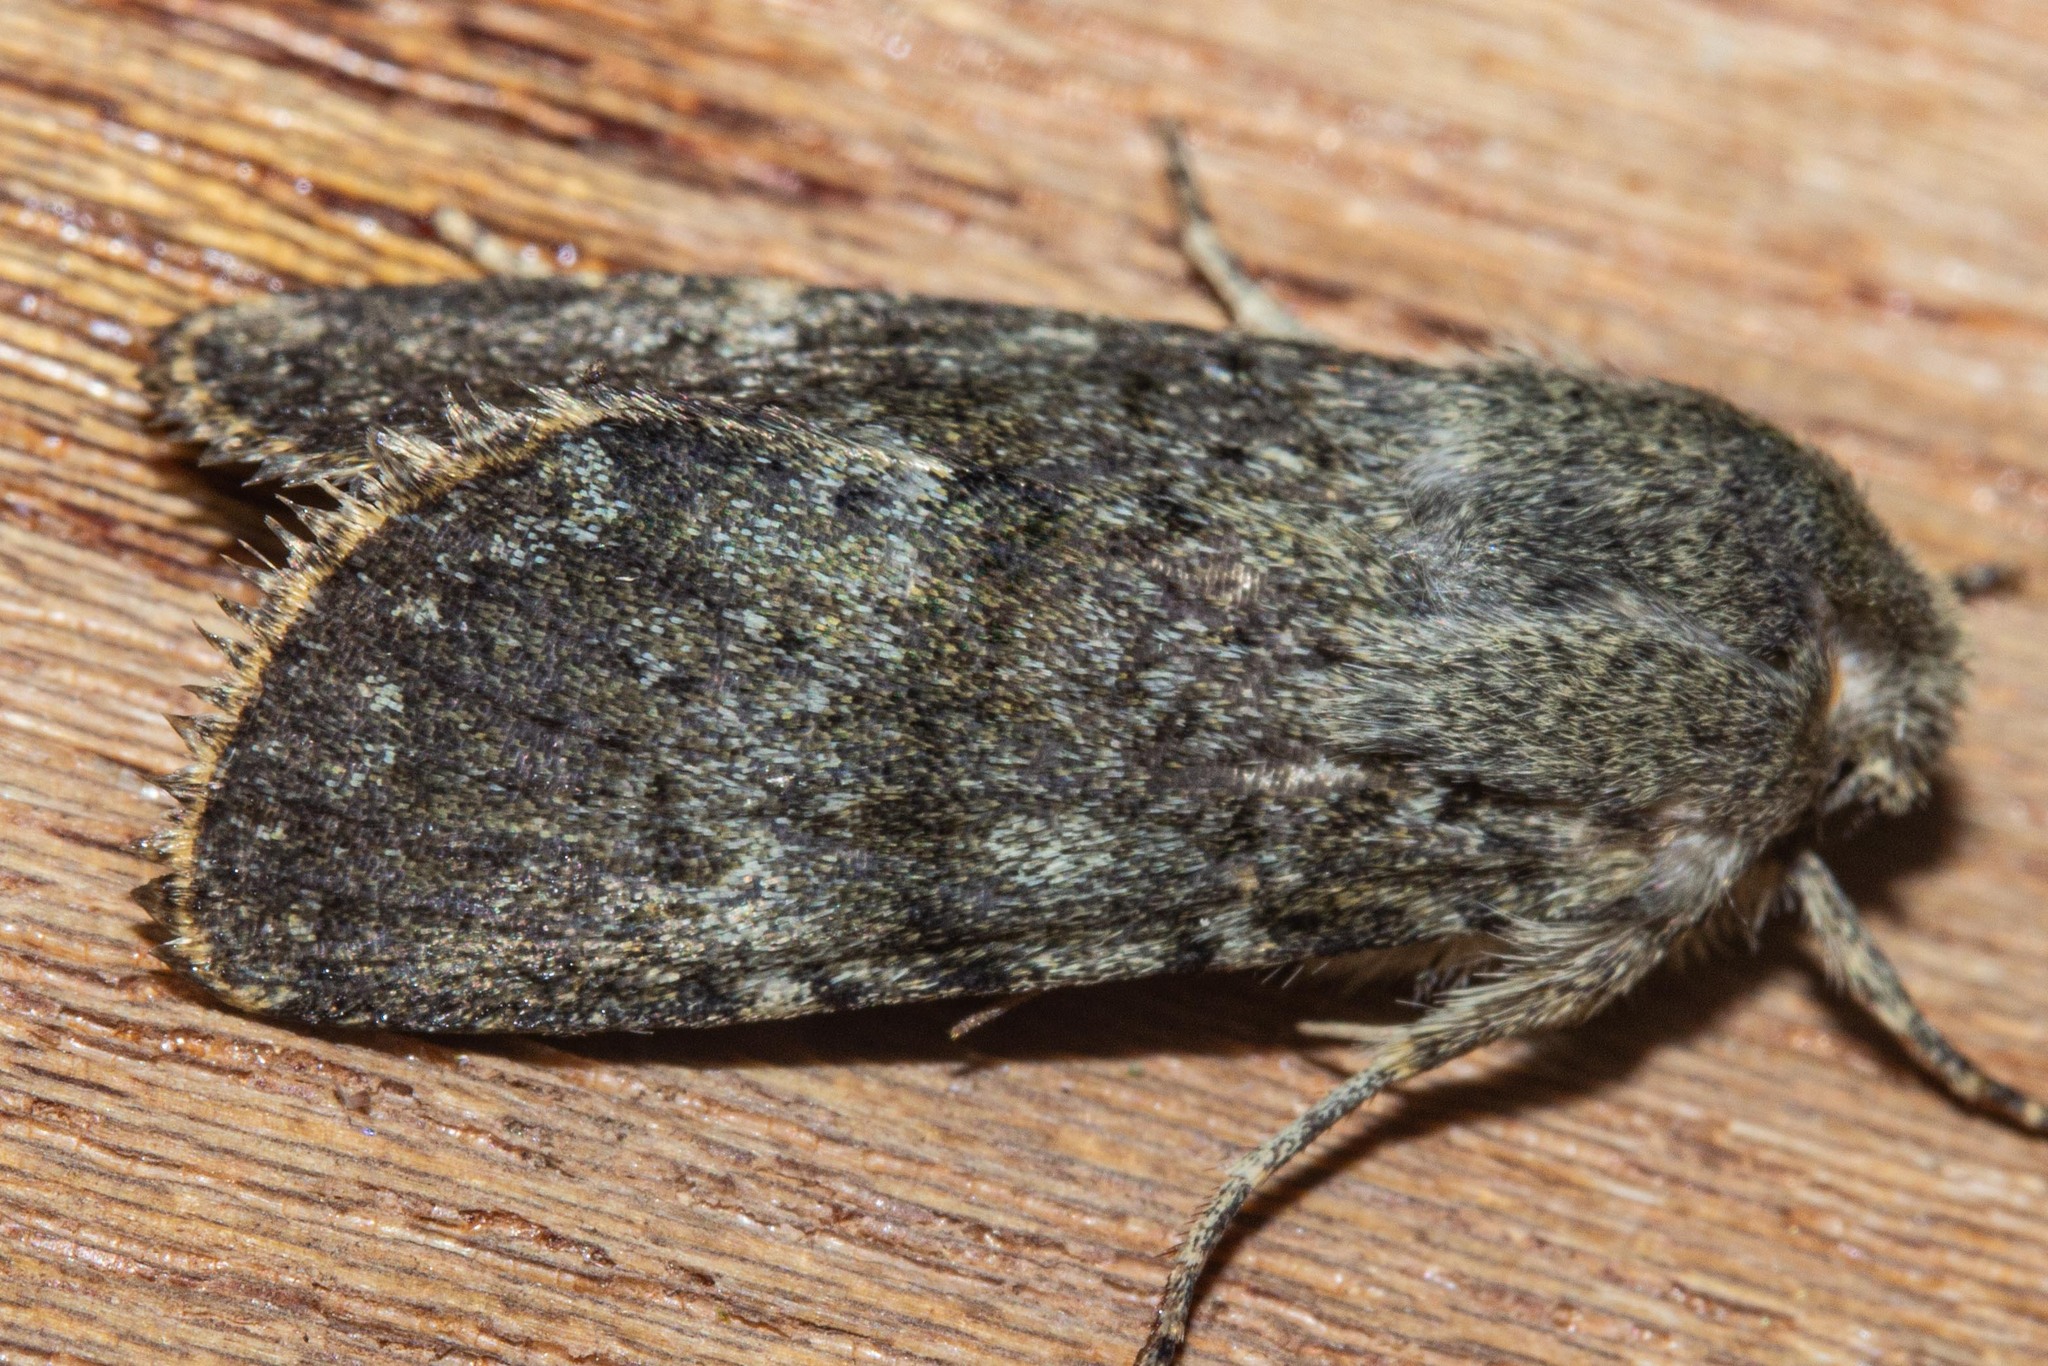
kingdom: Animalia
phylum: Arthropoda
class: Insecta
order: Lepidoptera
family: Noctuidae
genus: Ichneutica
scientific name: Ichneutica moderata
